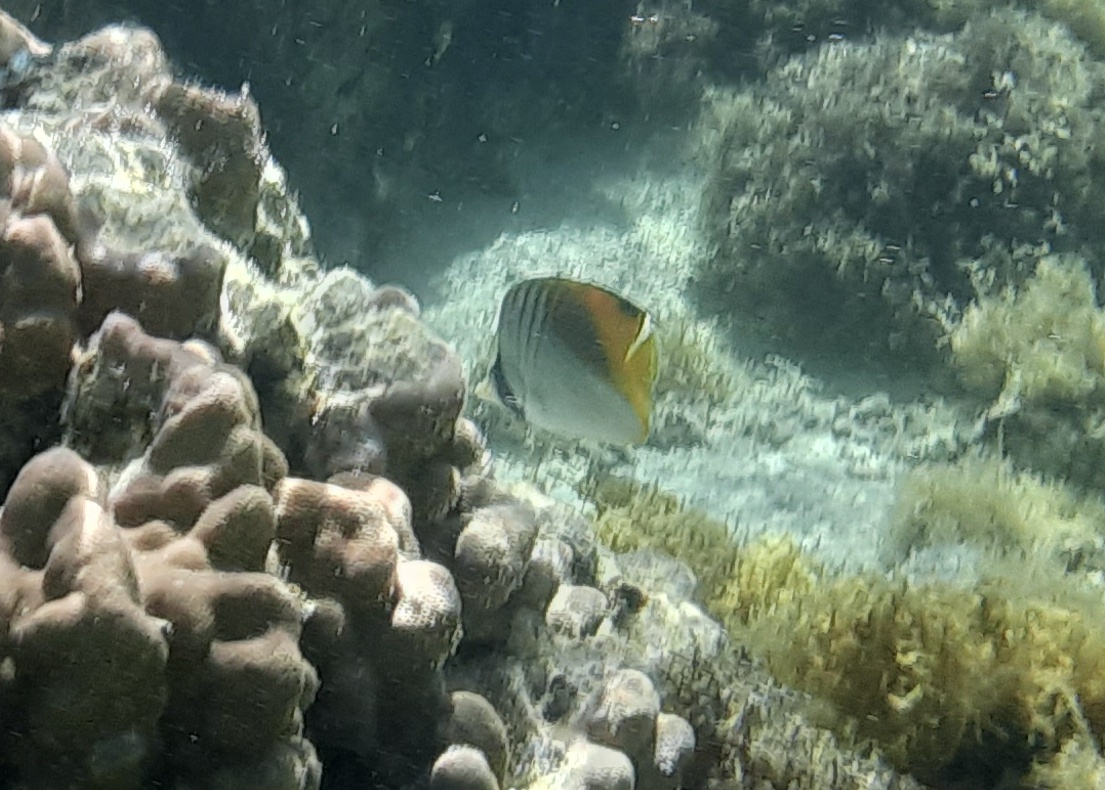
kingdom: Animalia
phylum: Chordata
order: Perciformes
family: Chaetodontidae
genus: Chaetodon
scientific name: Chaetodon auriga
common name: Threadfin butterflyfish
